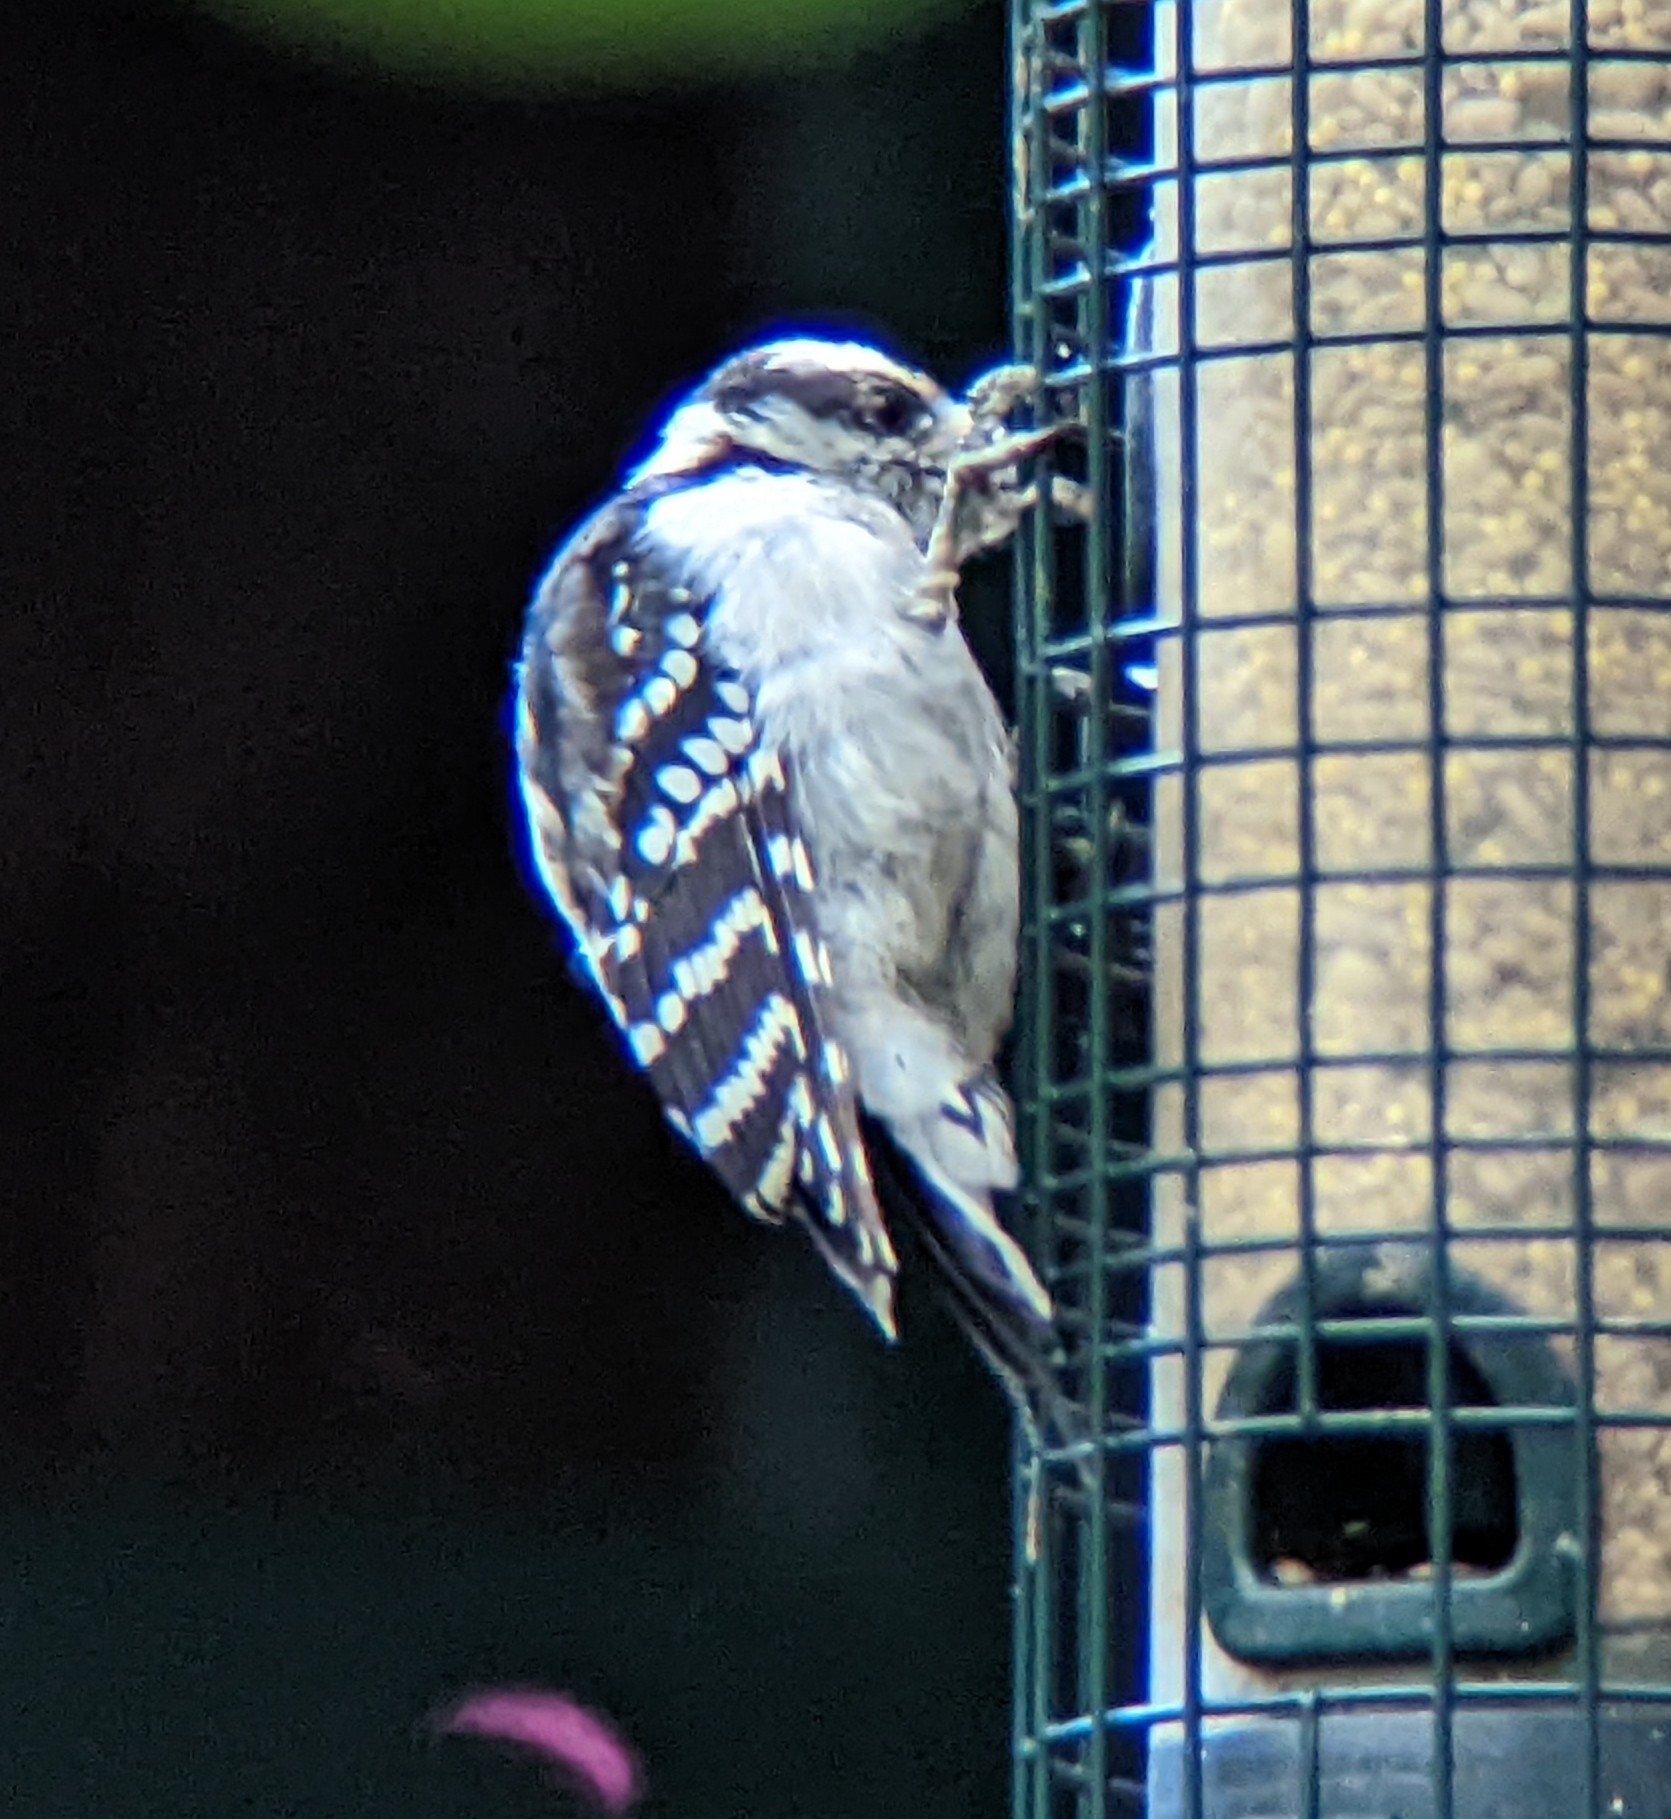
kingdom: Animalia
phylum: Chordata
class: Aves
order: Piciformes
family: Picidae
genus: Dryobates
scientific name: Dryobates pubescens
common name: Downy woodpecker
